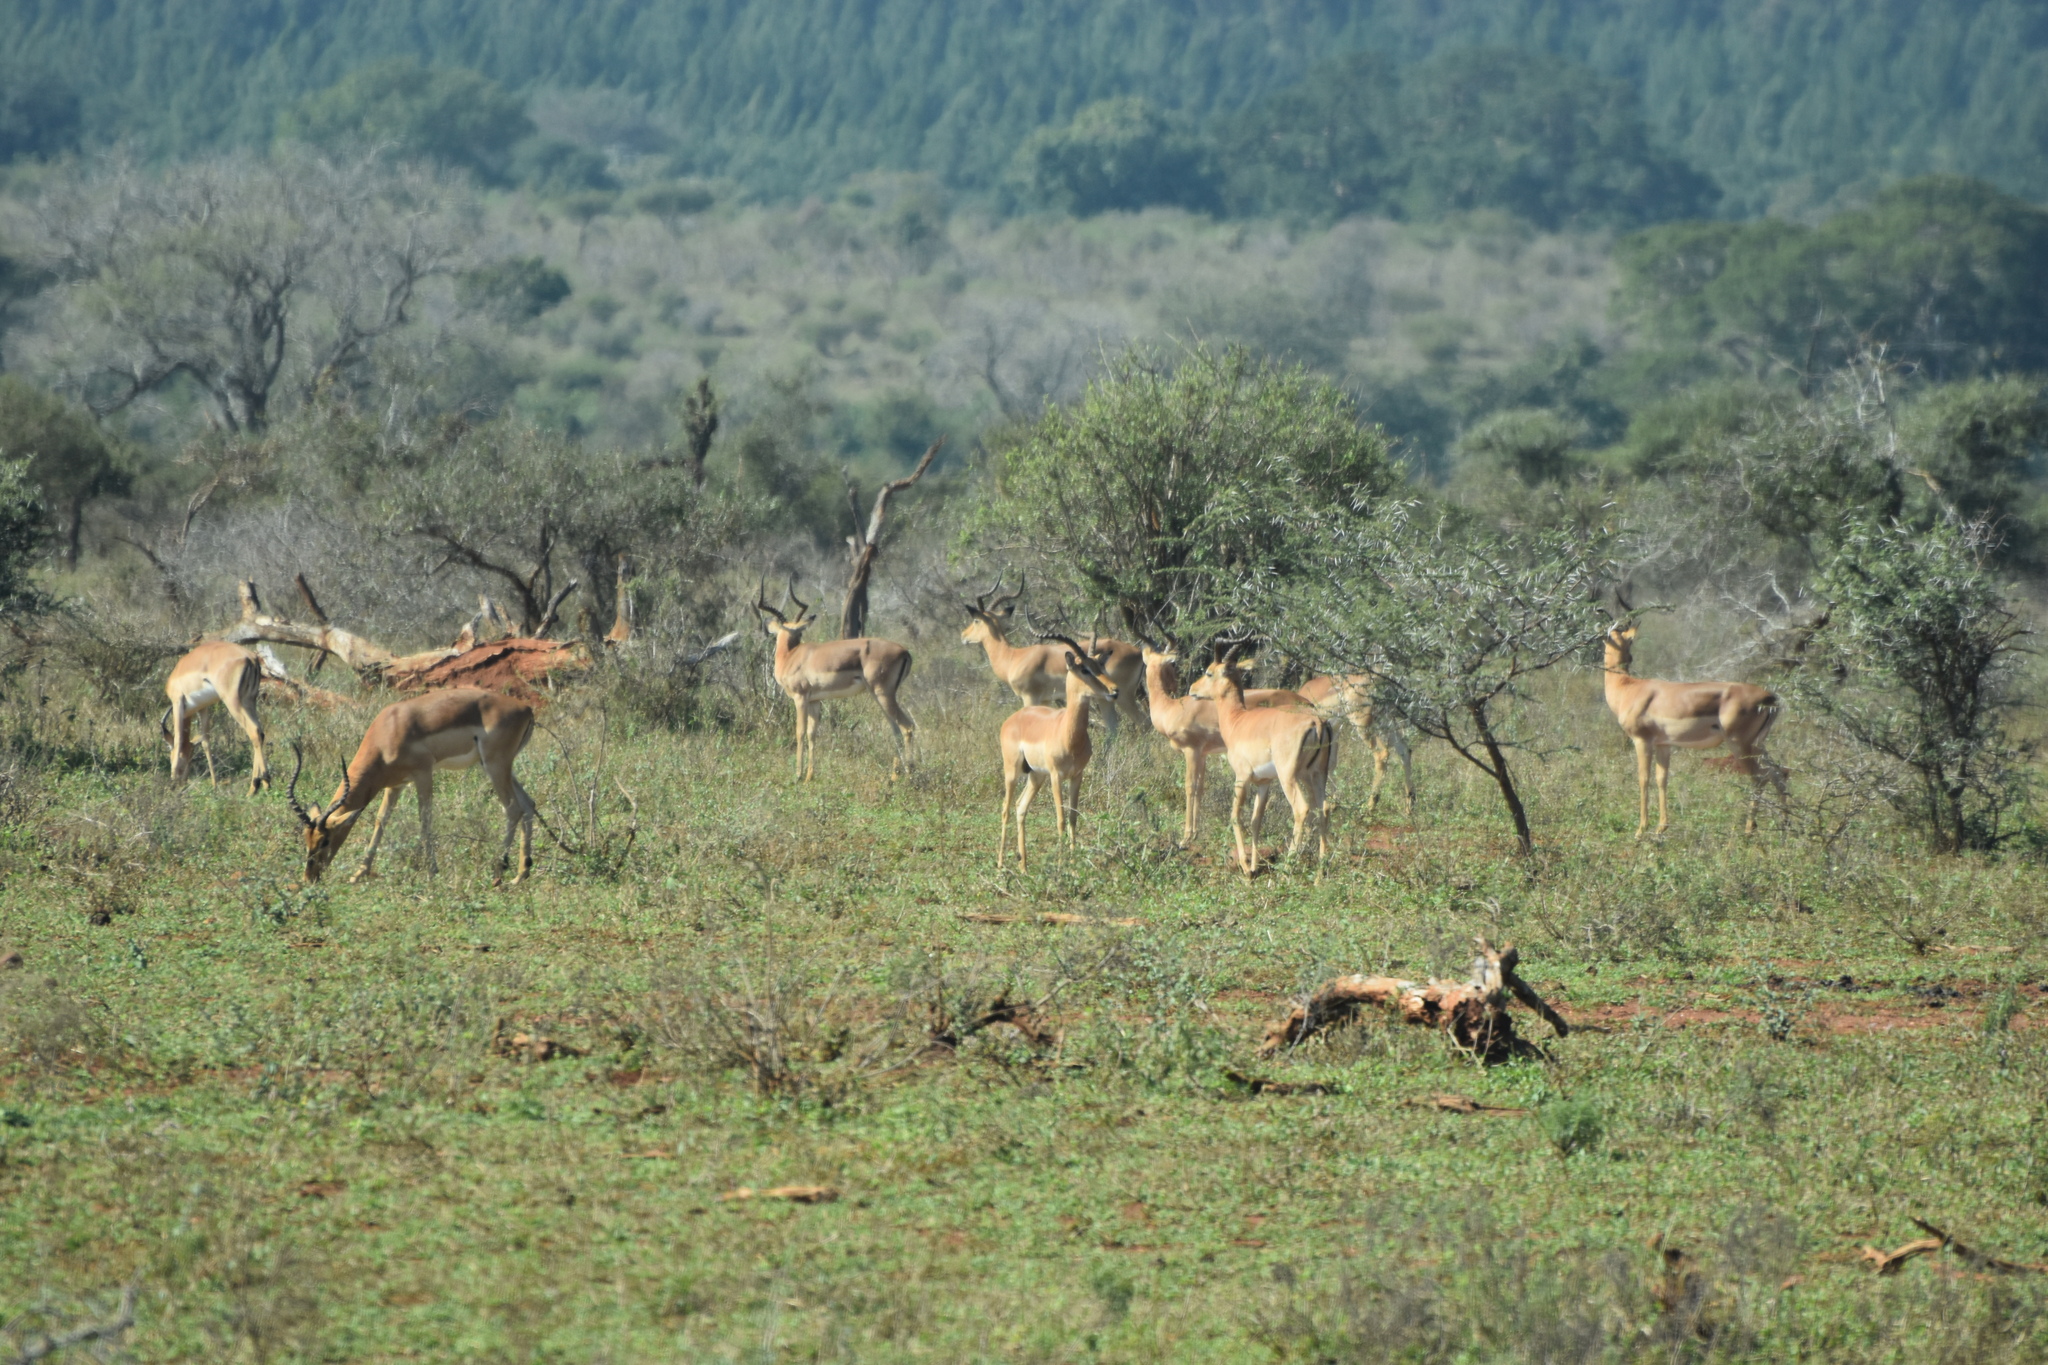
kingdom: Animalia
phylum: Chordata
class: Mammalia
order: Artiodactyla
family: Bovidae
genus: Aepyceros
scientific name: Aepyceros melampus
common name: Impala
